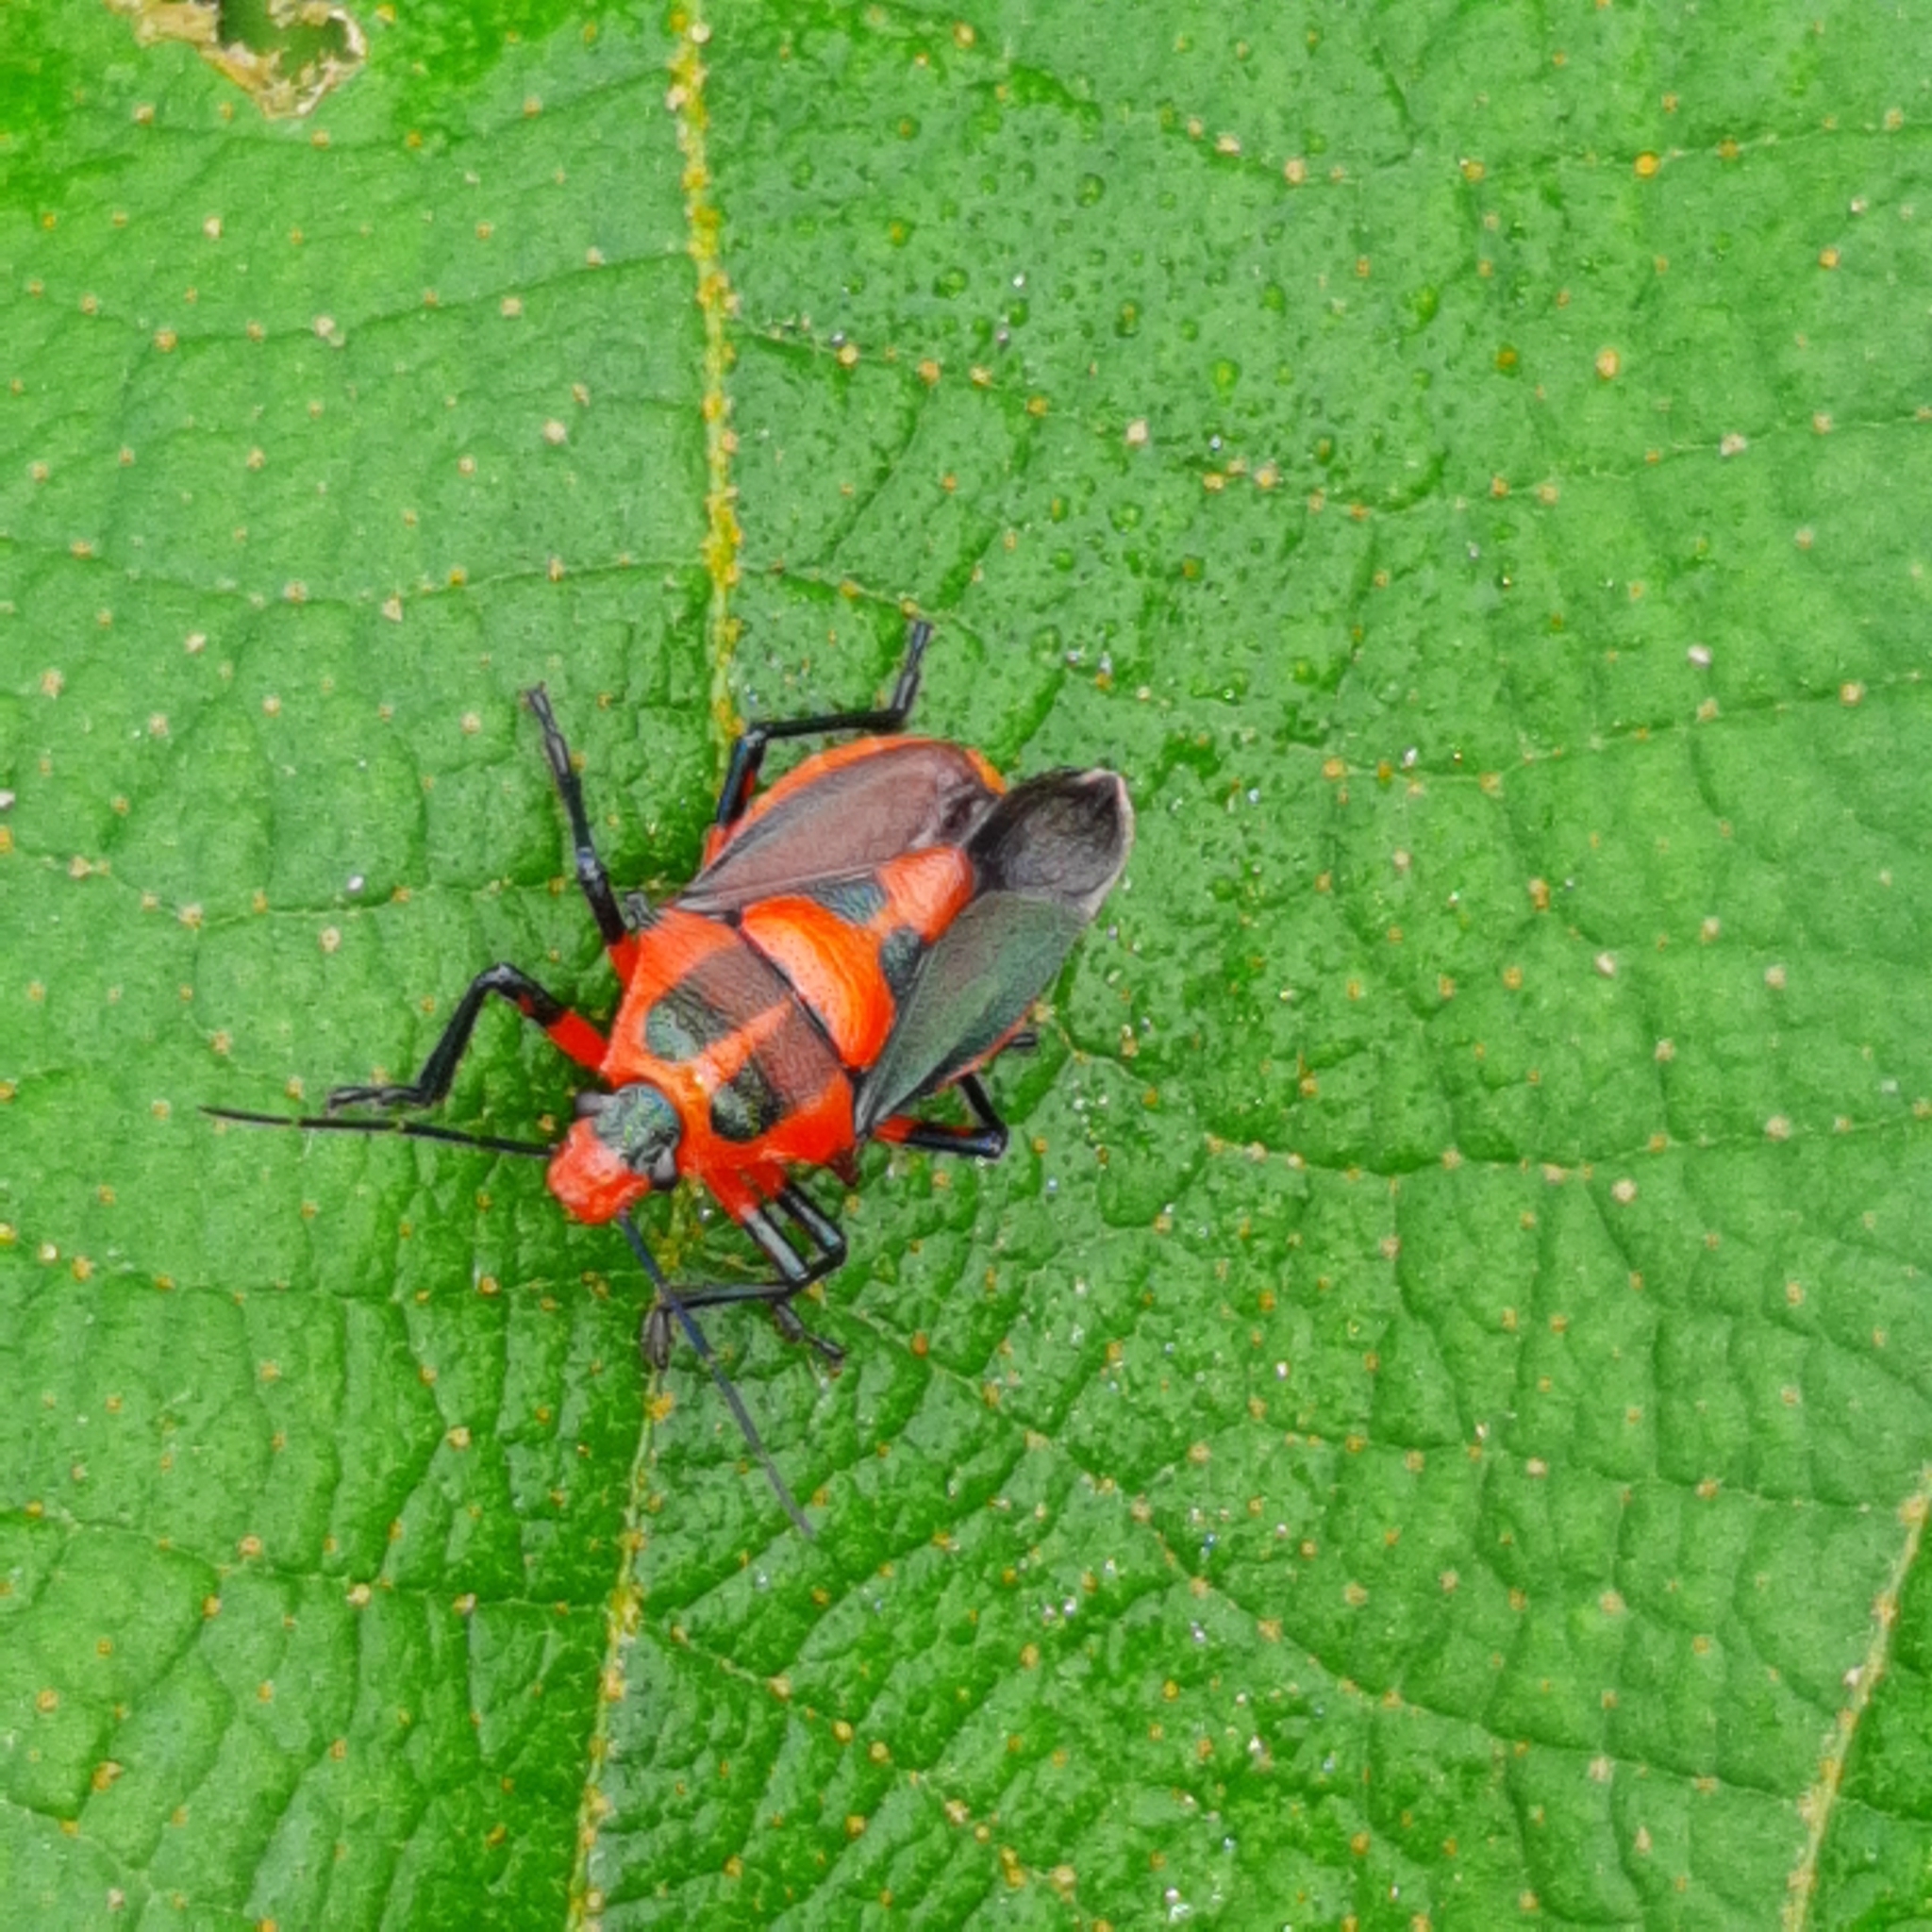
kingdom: Animalia
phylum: Arthropoda
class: Insecta
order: Hemiptera
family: Pentatomidae
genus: Euthyrhynchus
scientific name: Euthyrhynchus floridanus
